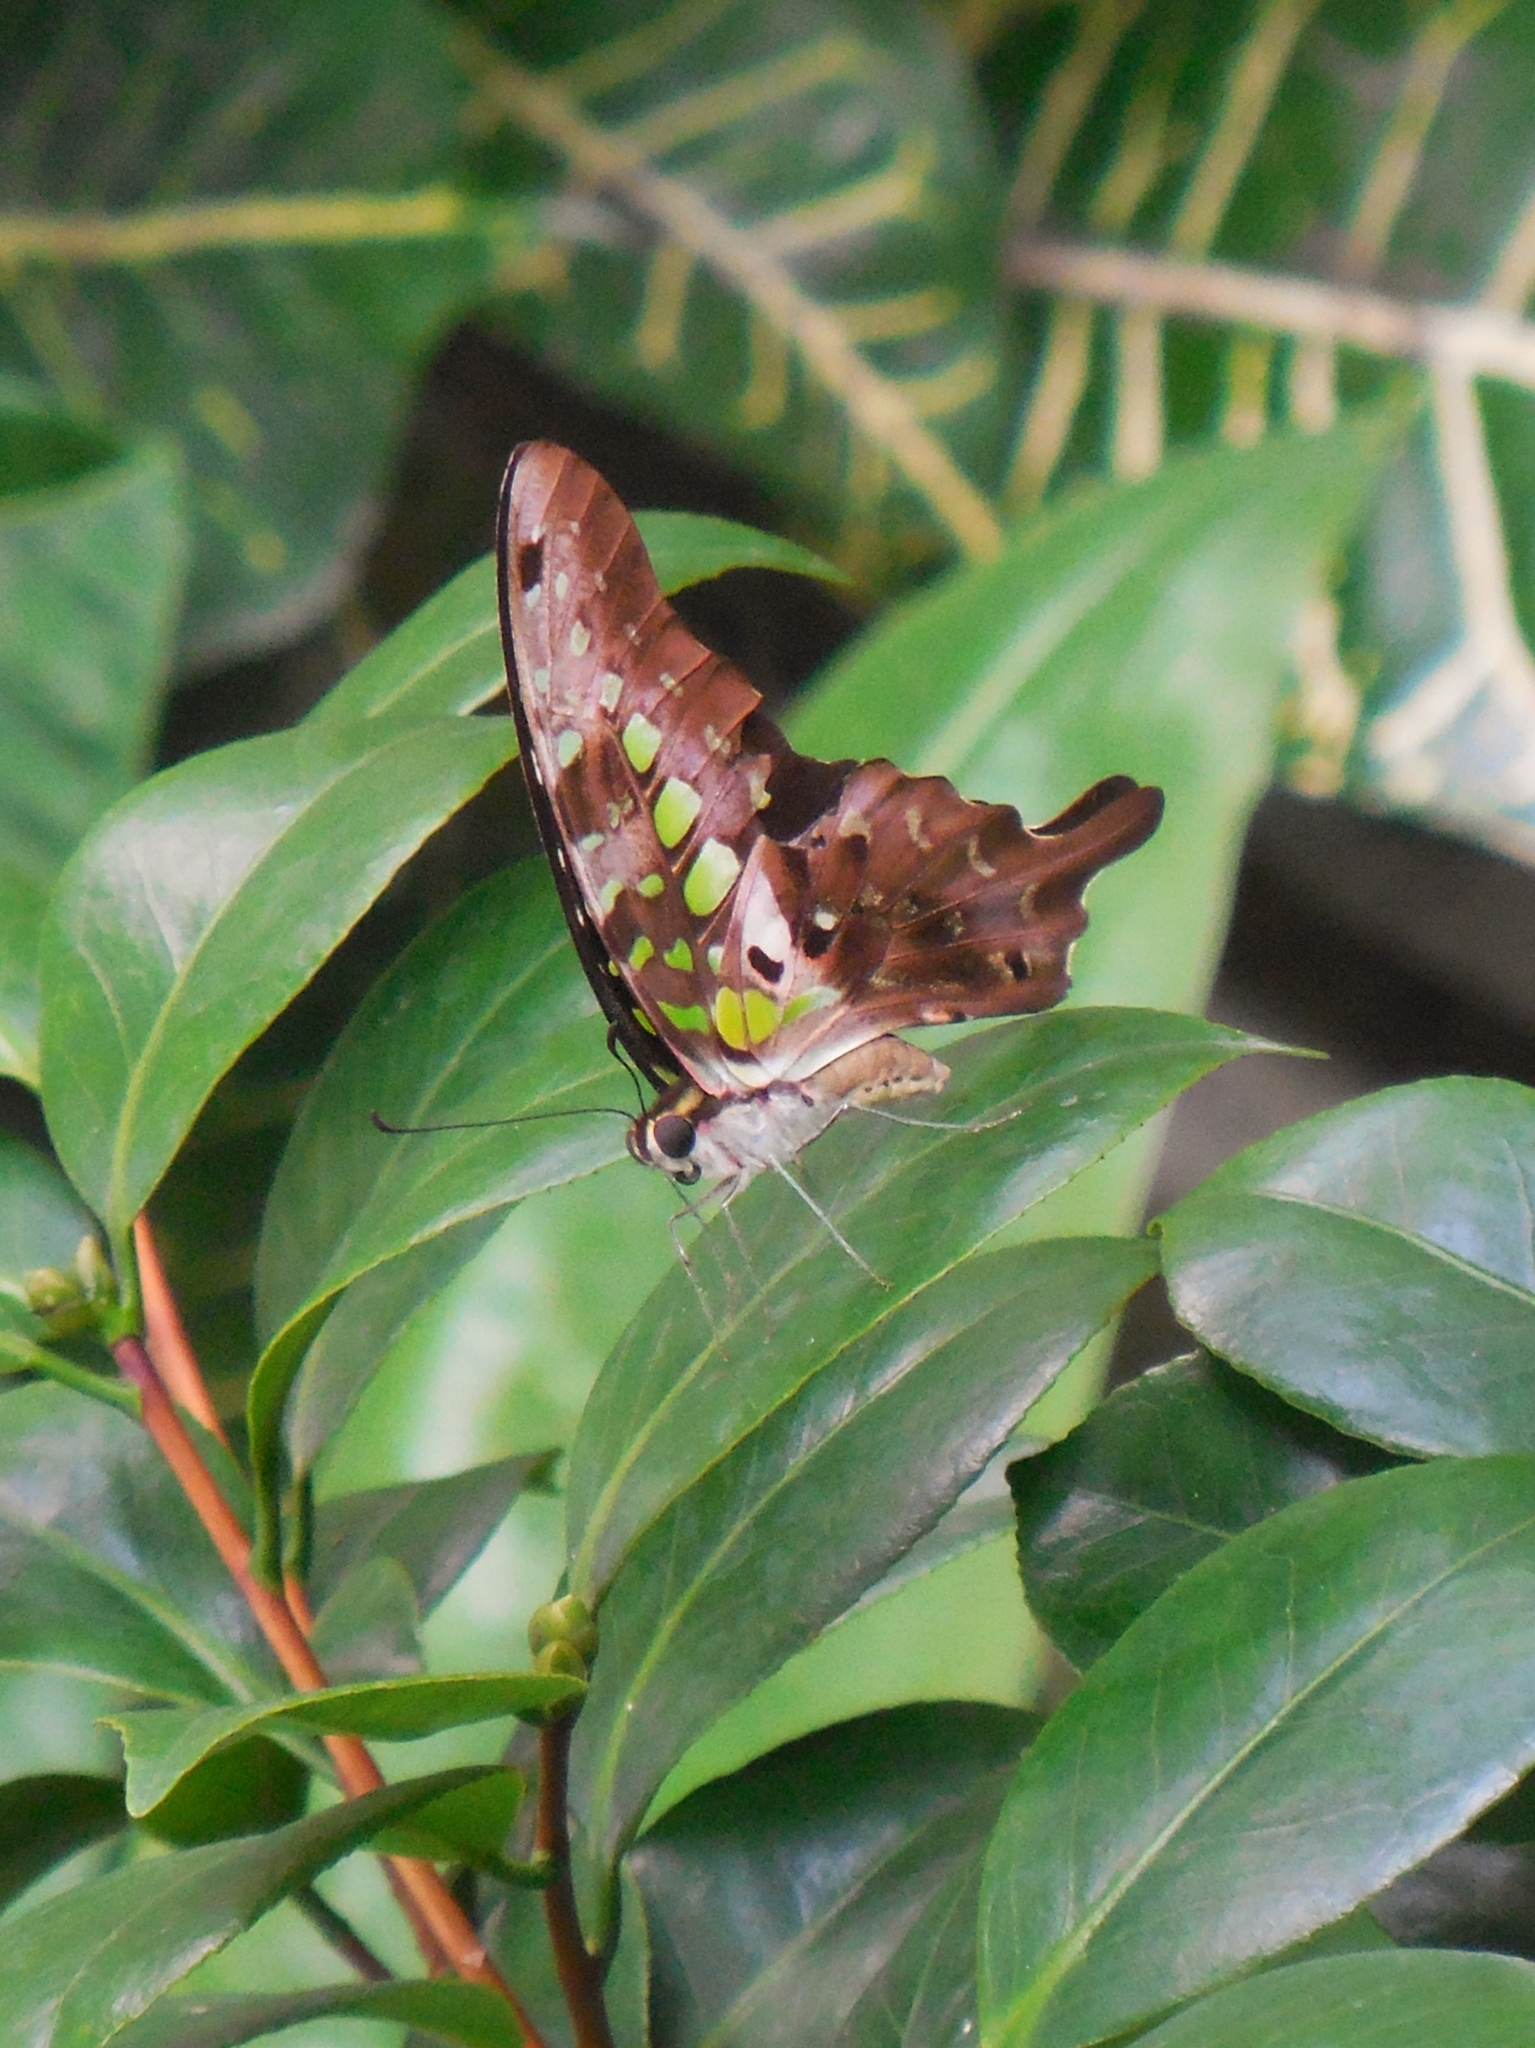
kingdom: Animalia
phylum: Arthropoda
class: Insecta
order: Lepidoptera
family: Papilionidae
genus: Graphium
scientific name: Graphium agamemnon
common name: Tailed jay
